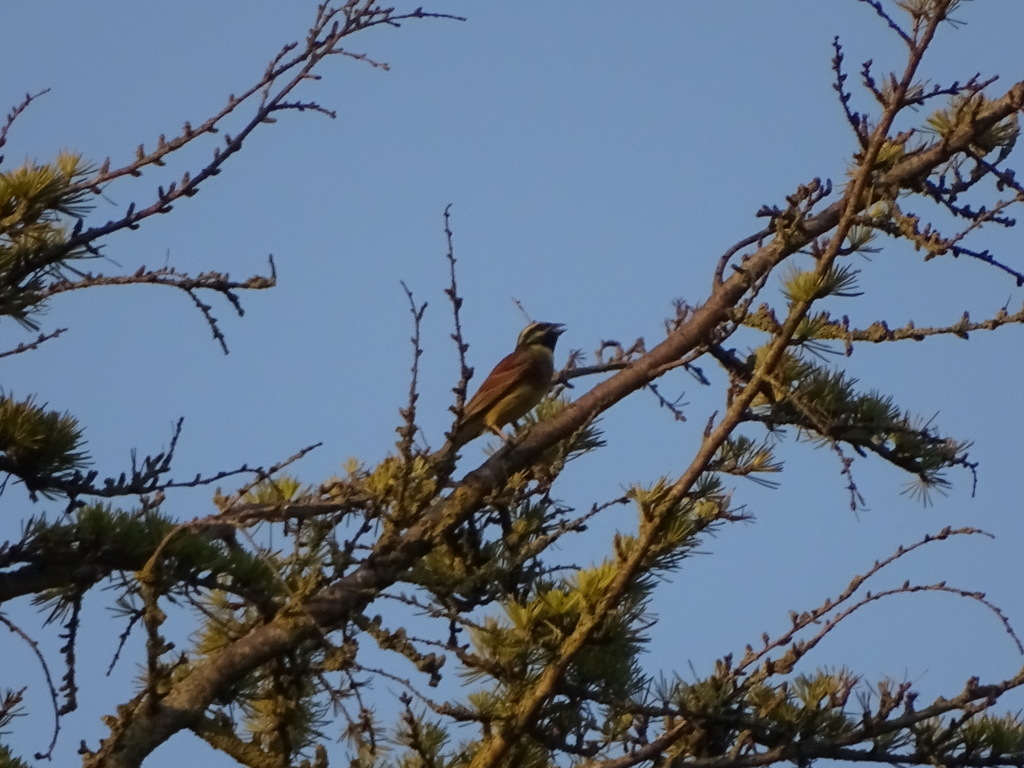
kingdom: Animalia
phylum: Chordata
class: Aves
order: Passeriformes
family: Emberizidae
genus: Emberiza
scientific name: Emberiza cirlus
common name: Cirl bunting
